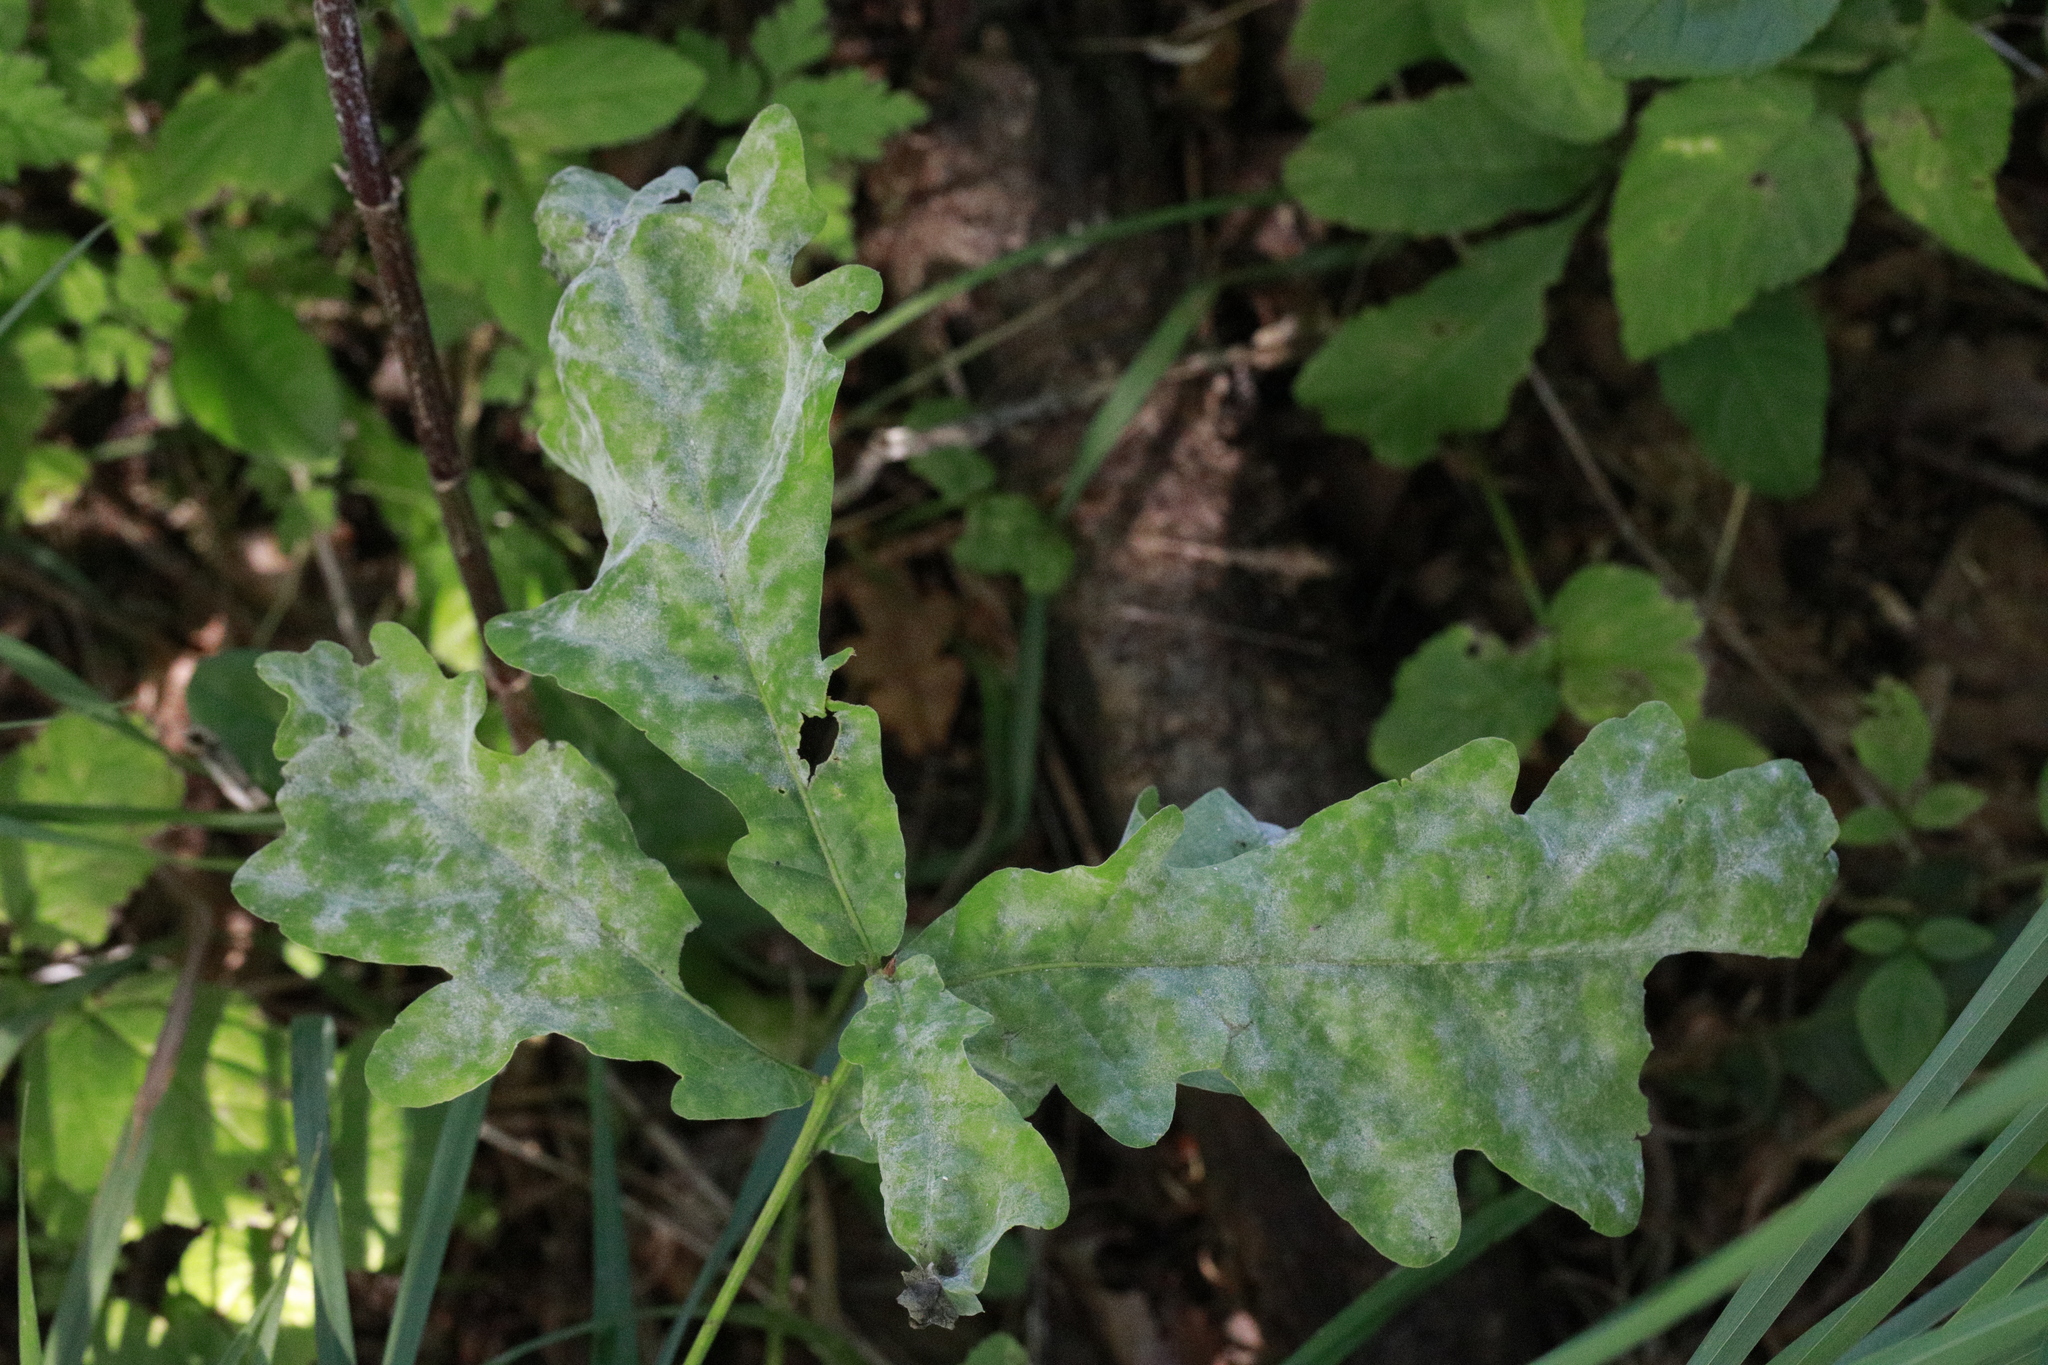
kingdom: Fungi
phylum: Ascomycota
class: Leotiomycetes
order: Helotiales
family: Erysiphaceae
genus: Erysiphe
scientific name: Erysiphe alphitoides
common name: Oak mildew
